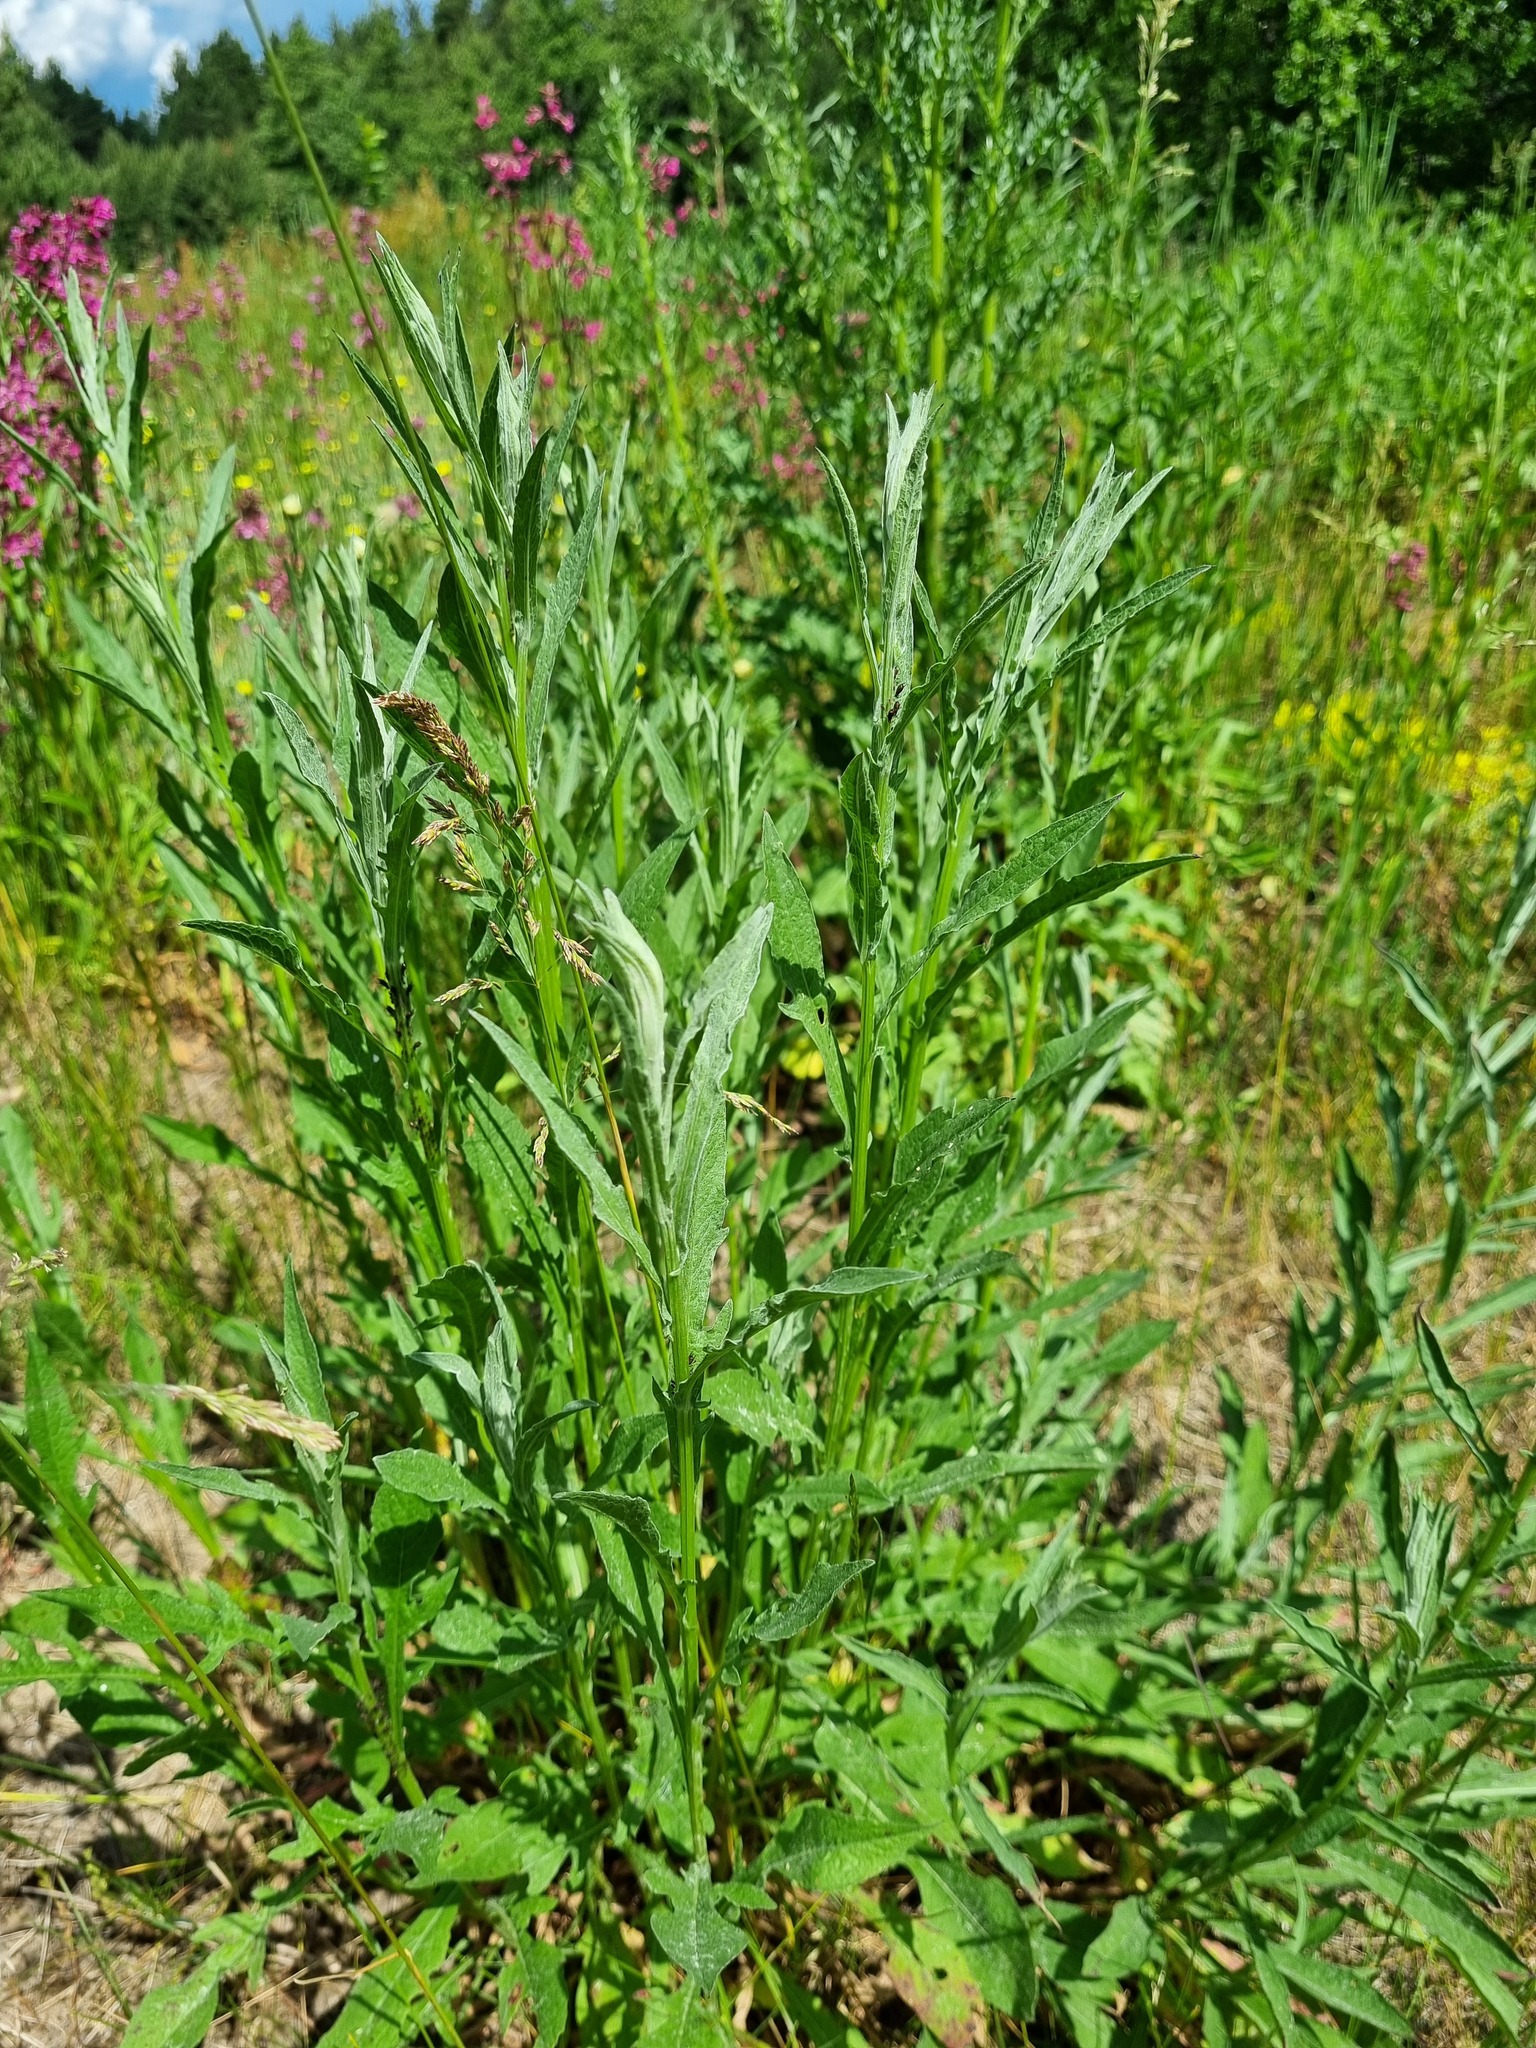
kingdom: Plantae
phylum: Tracheophyta
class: Magnoliopsida
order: Asterales
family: Asteraceae
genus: Centaurea
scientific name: Centaurea jacea
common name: Brown knapweed
